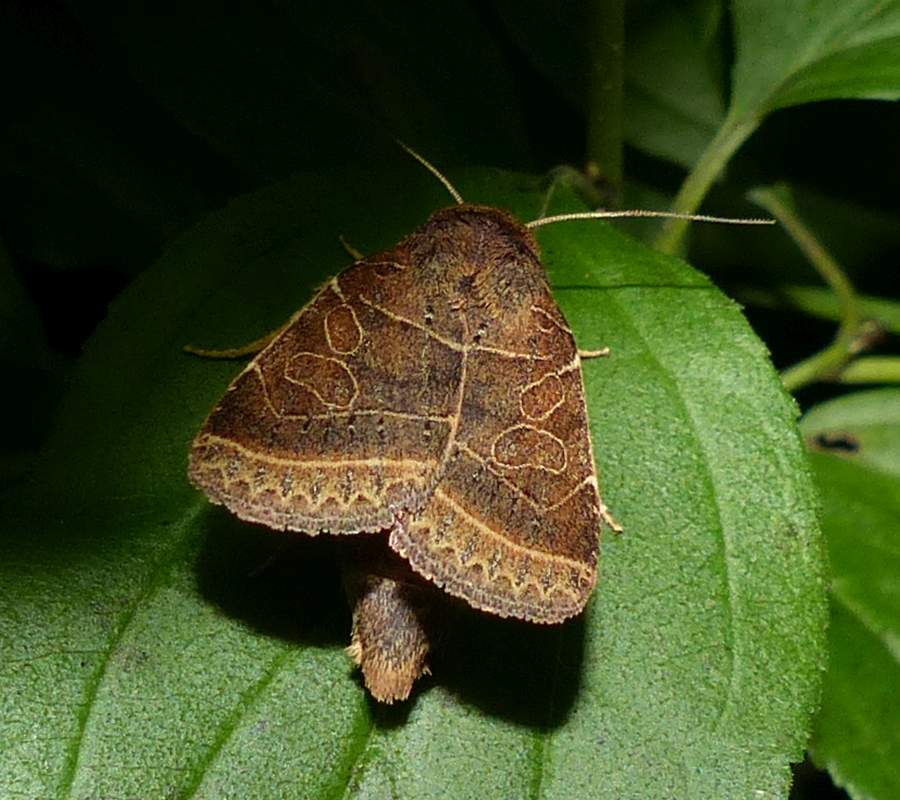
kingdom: Animalia
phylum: Arthropoda
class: Insecta
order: Lepidoptera
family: Noctuidae
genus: Orthodes
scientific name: Orthodes majuscula
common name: Rustic quaker
